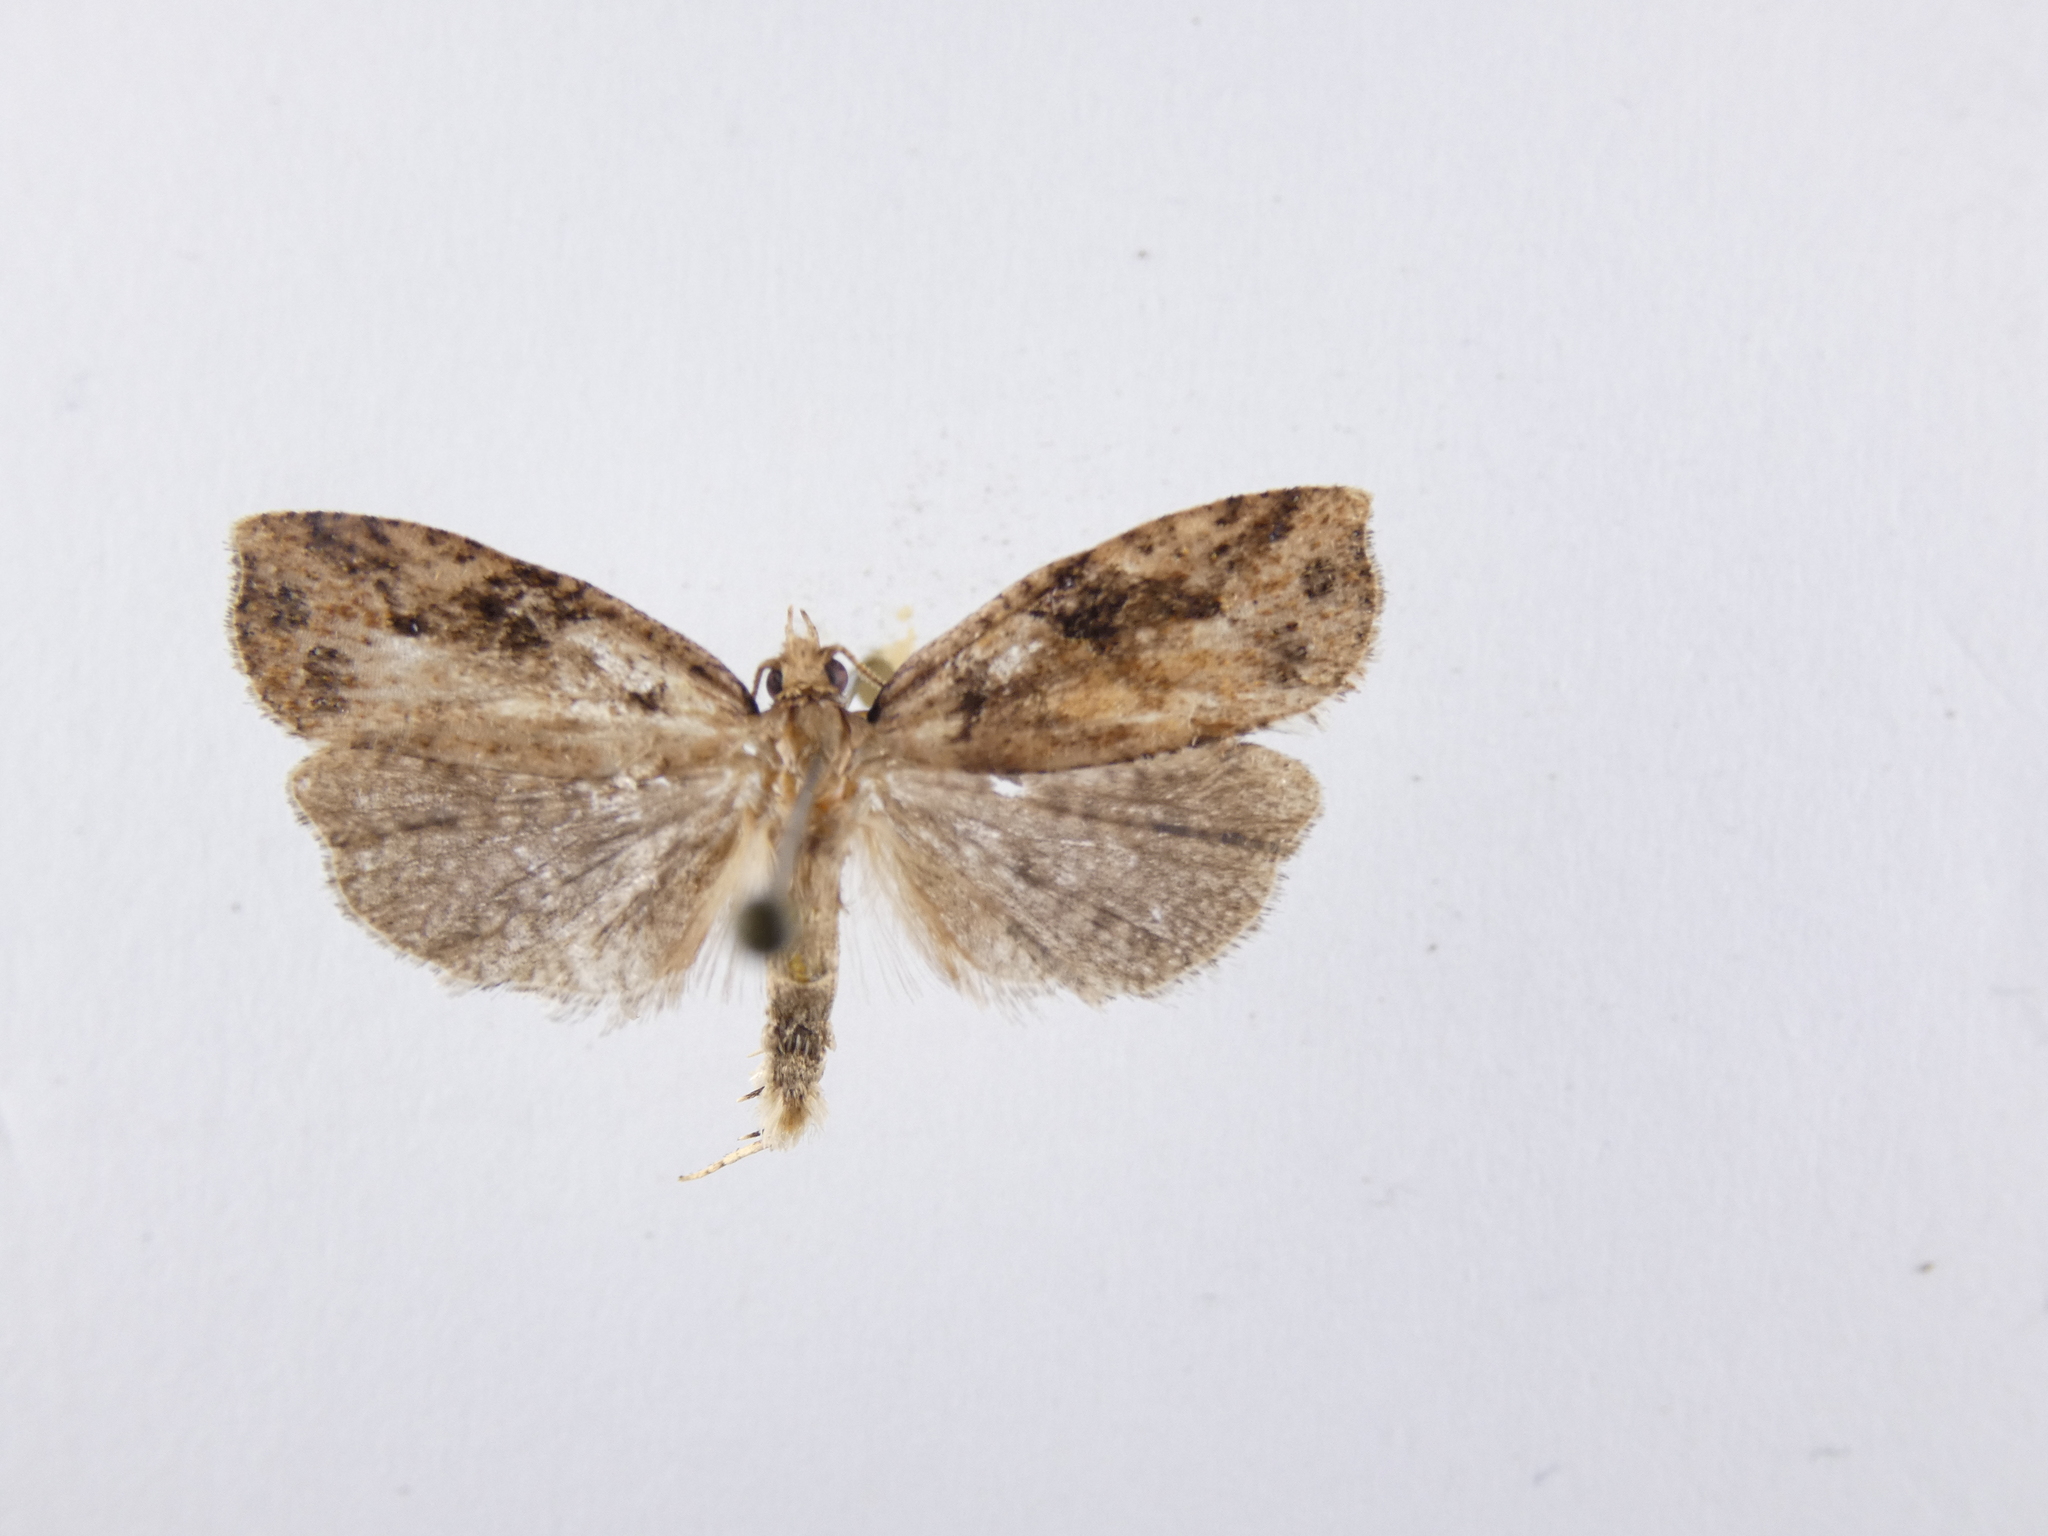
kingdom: Animalia
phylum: Arthropoda
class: Insecta
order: Lepidoptera
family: Tortricidae
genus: Ctenopseustis
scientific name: Ctenopseustis obliquana
